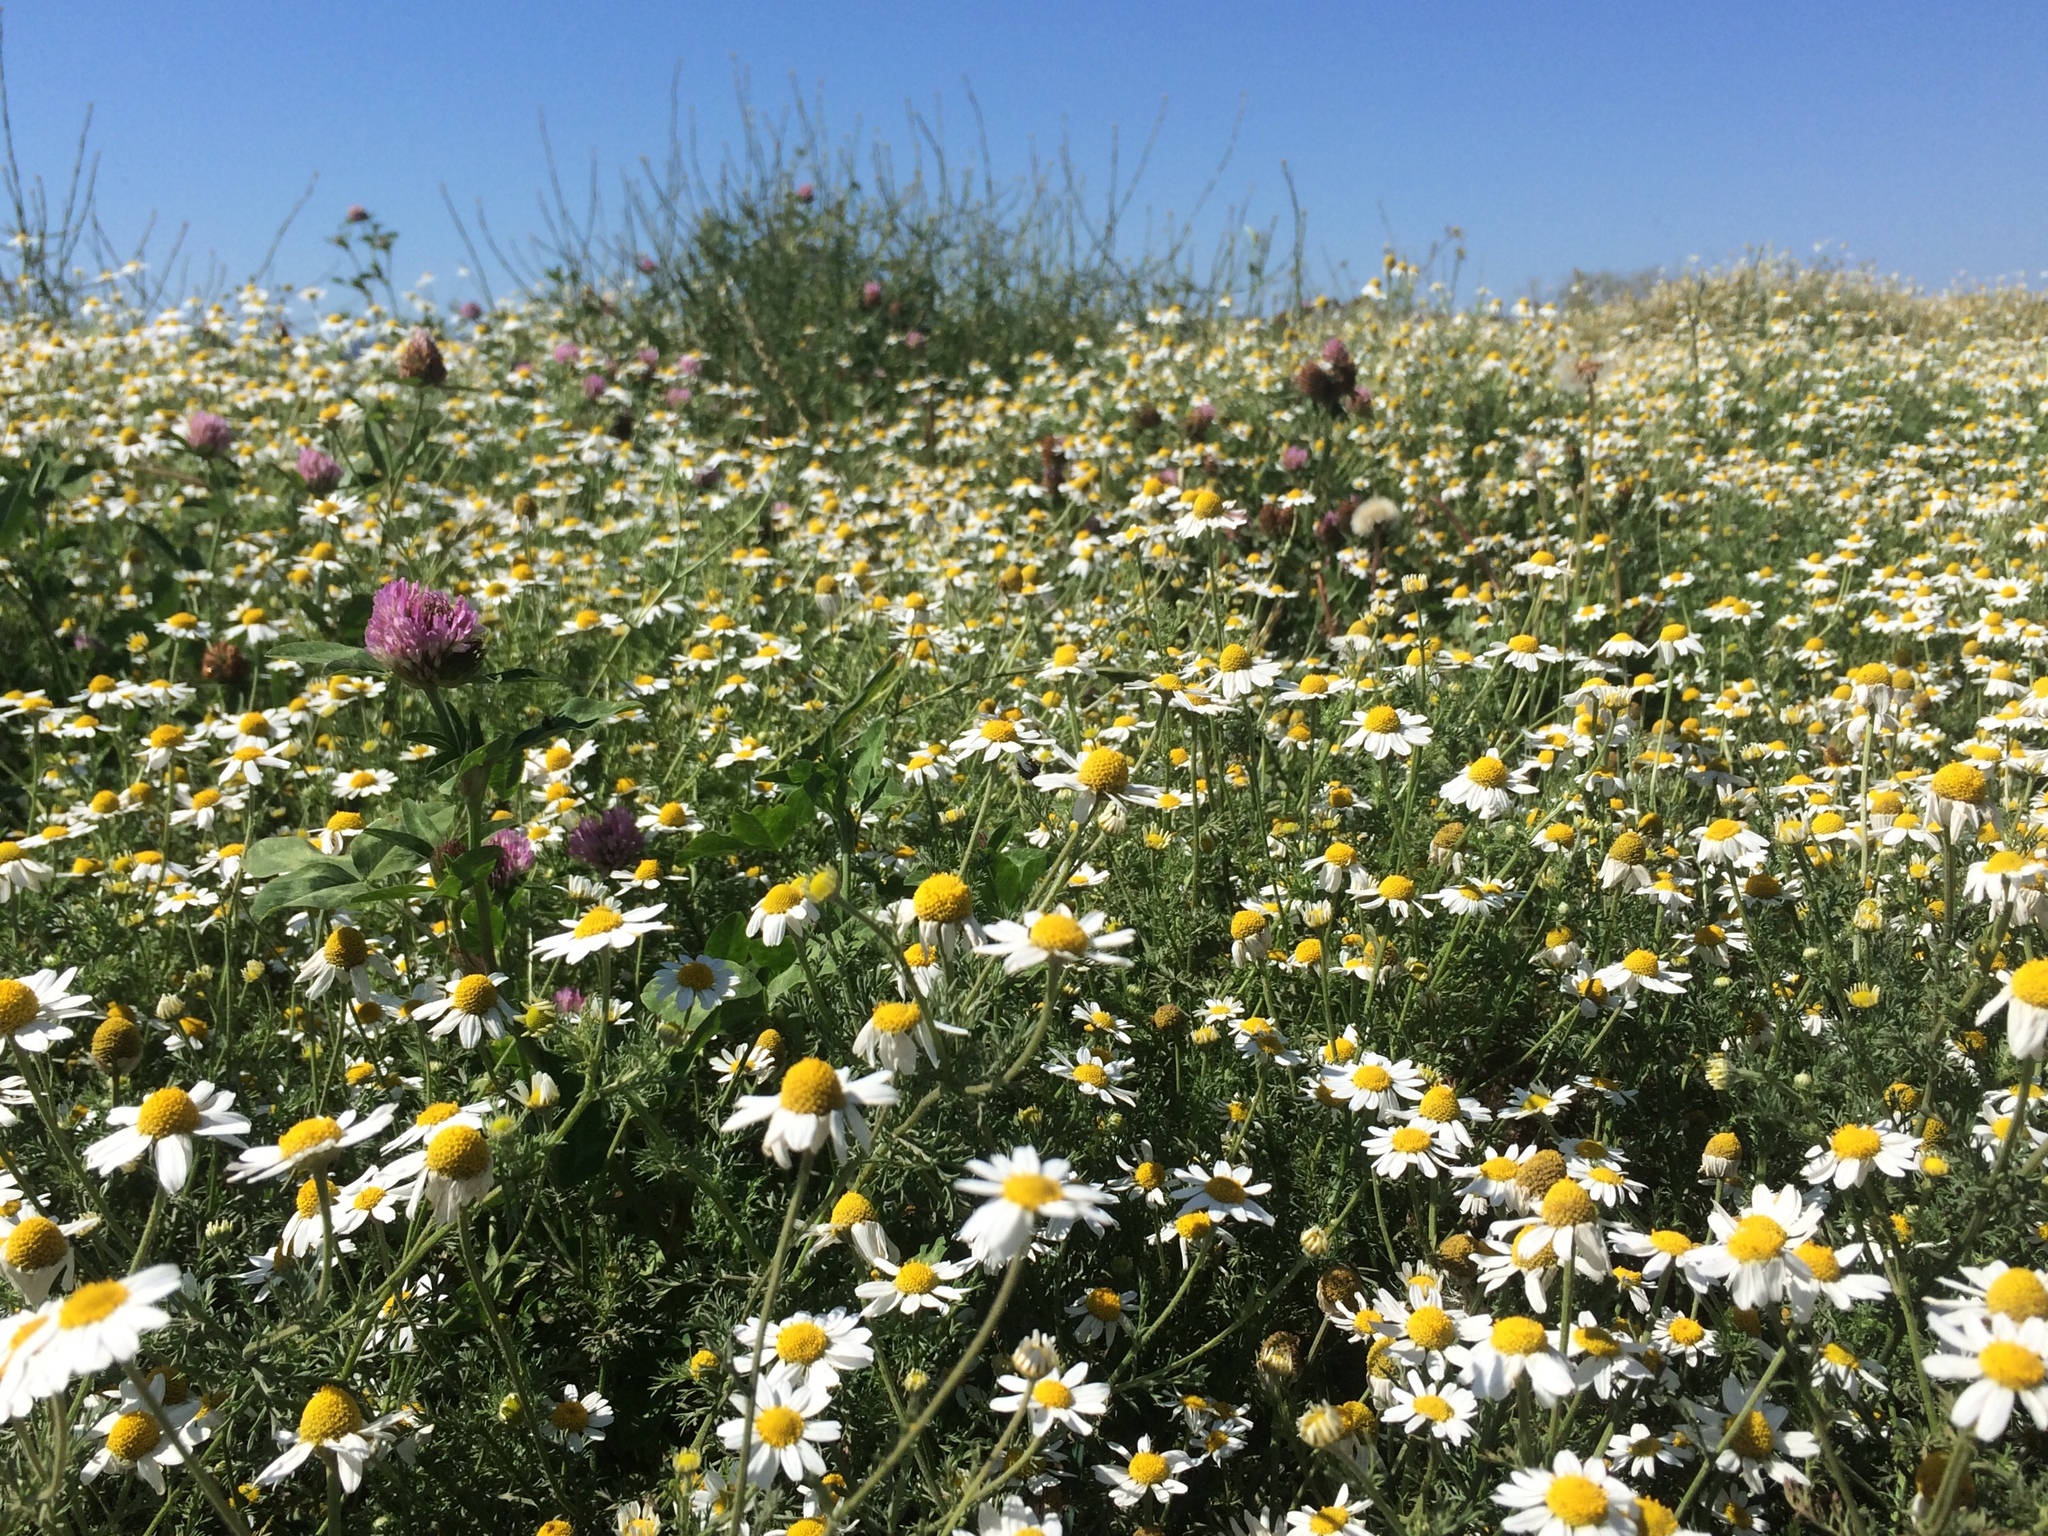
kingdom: Plantae
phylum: Tracheophyta
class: Magnoliopsida
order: Asterales
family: Asteraceae
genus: Anthemis
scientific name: Anthemis cotula
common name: Stinking chamomile
